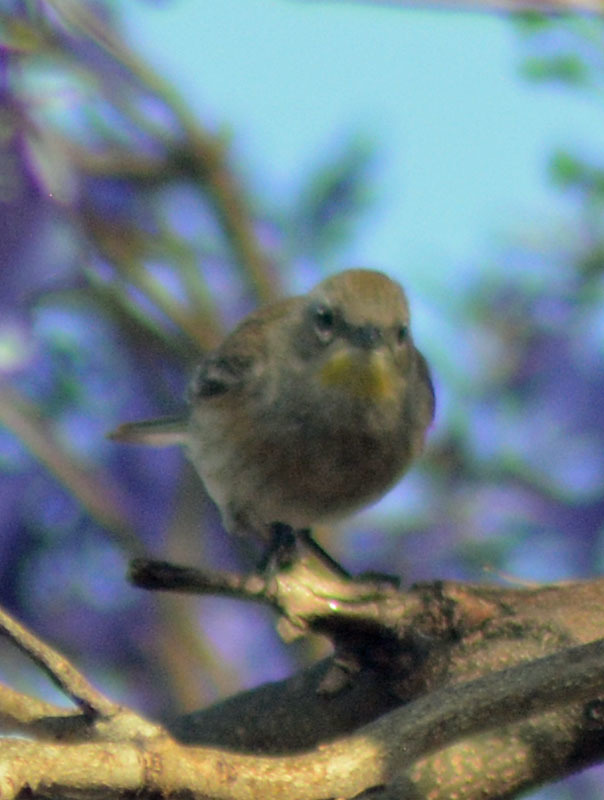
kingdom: Animalia
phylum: Chordata
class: Aves
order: Passeriformes
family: Parulidae
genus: Setophaga
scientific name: Setophaga coronata
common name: Myrtle warbler
